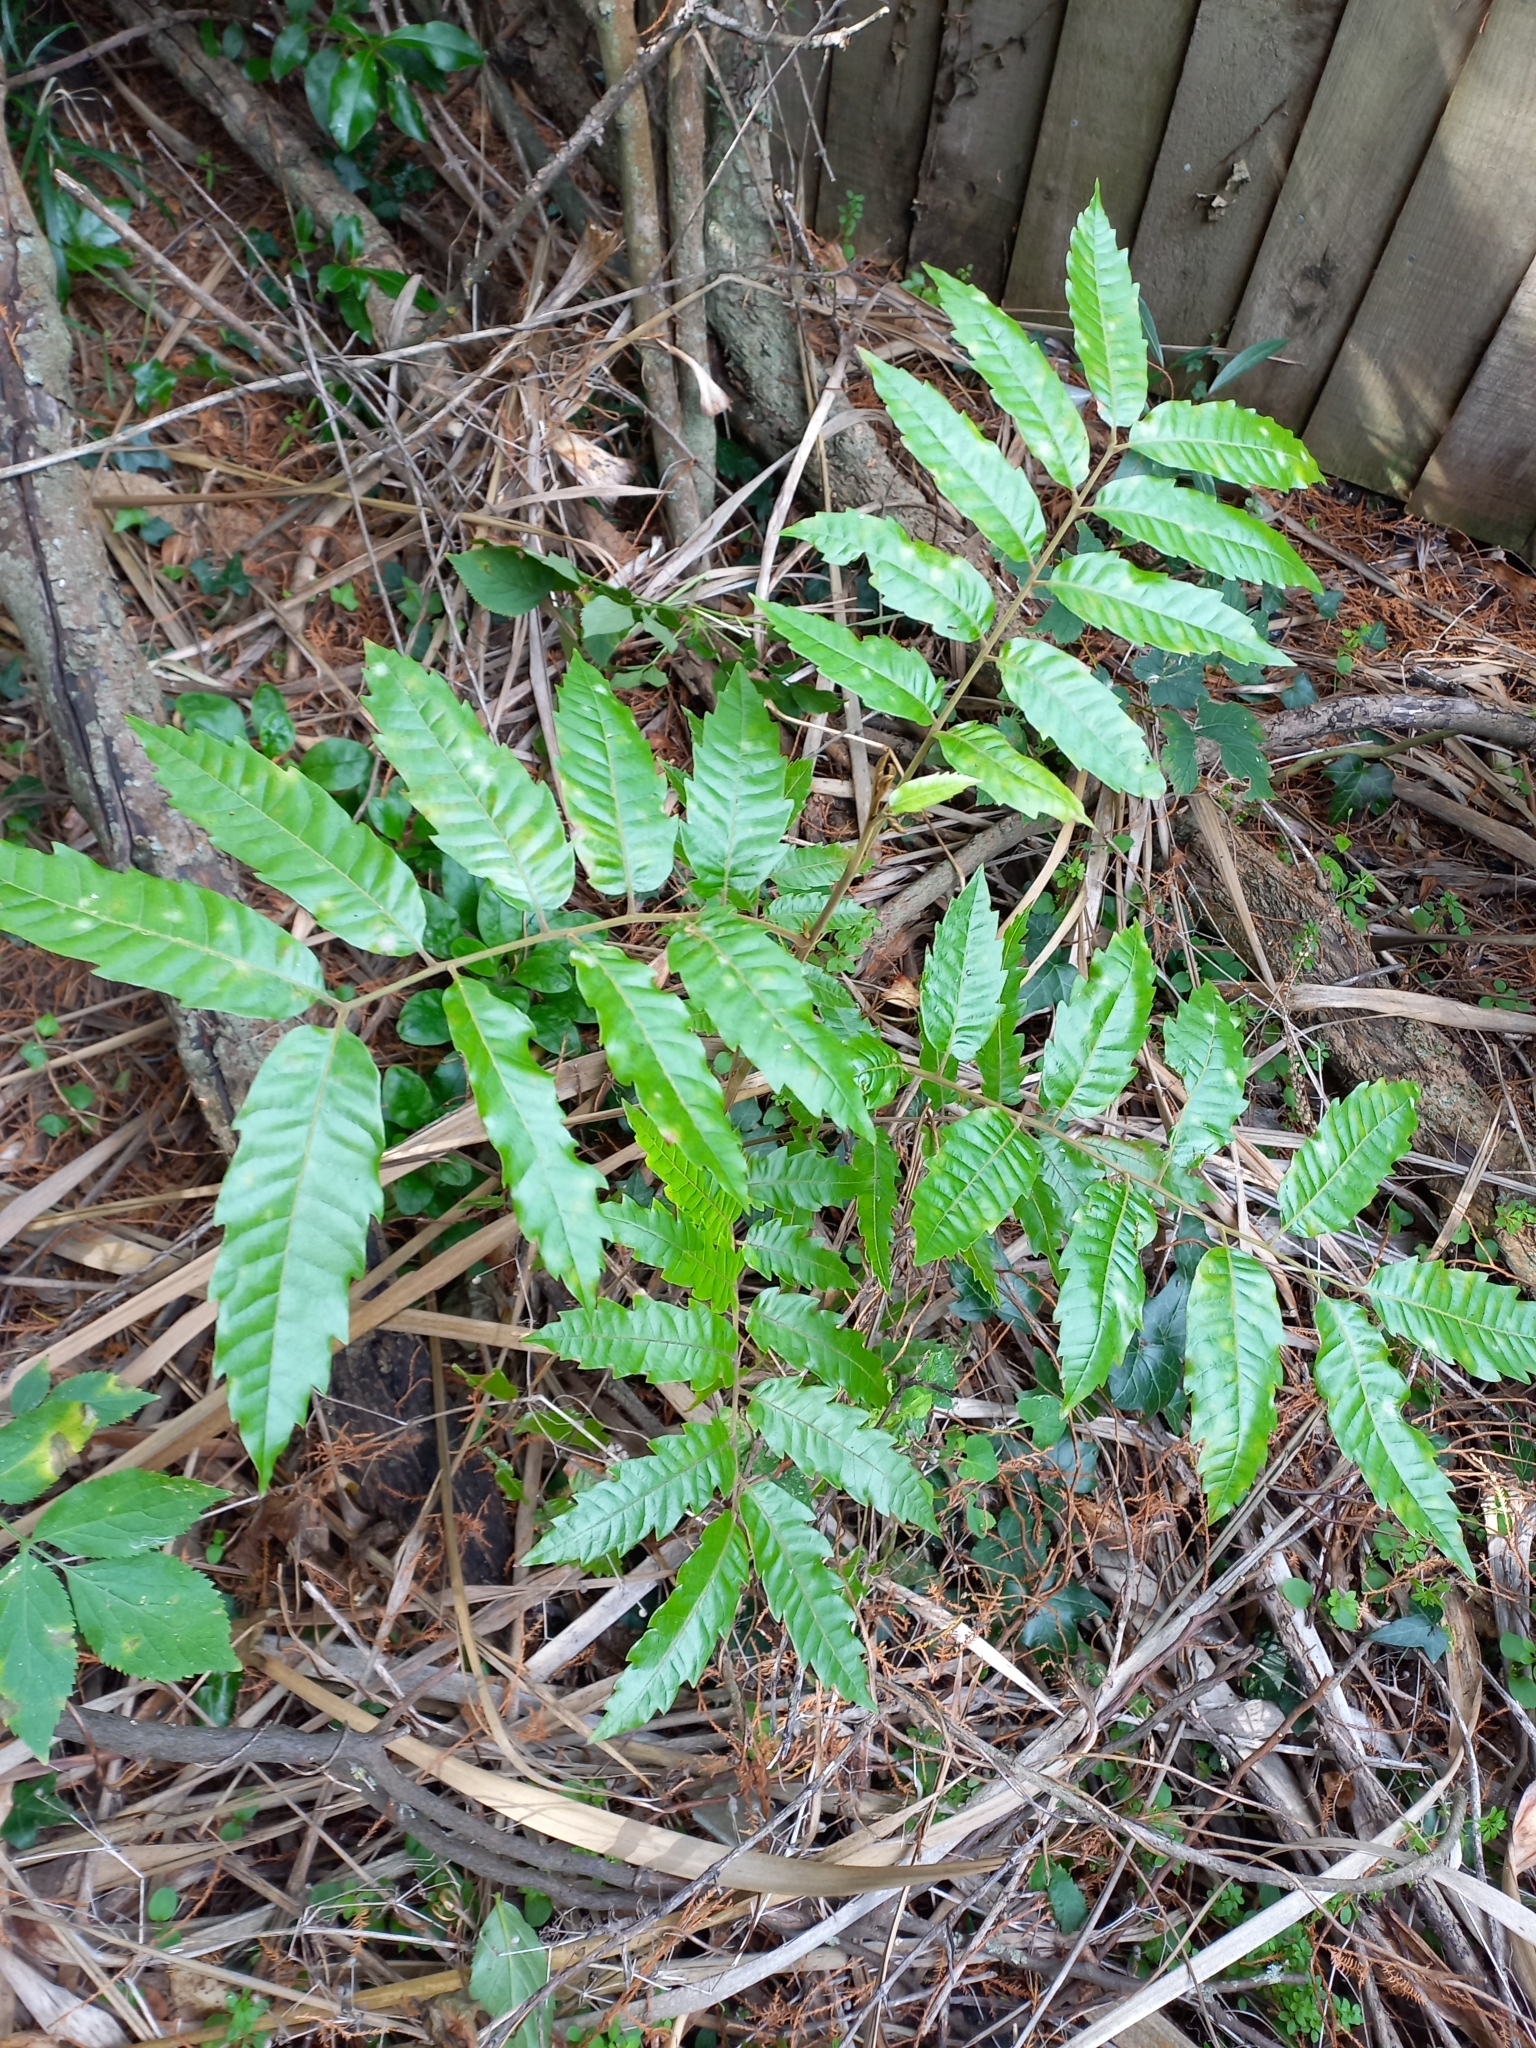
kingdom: Plantae
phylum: Tracheophyta
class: Magnoliopsida
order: Sapindales
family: Sapindaceae
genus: Alectryon
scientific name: Alectryon excelsus
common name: Three kings titoki
